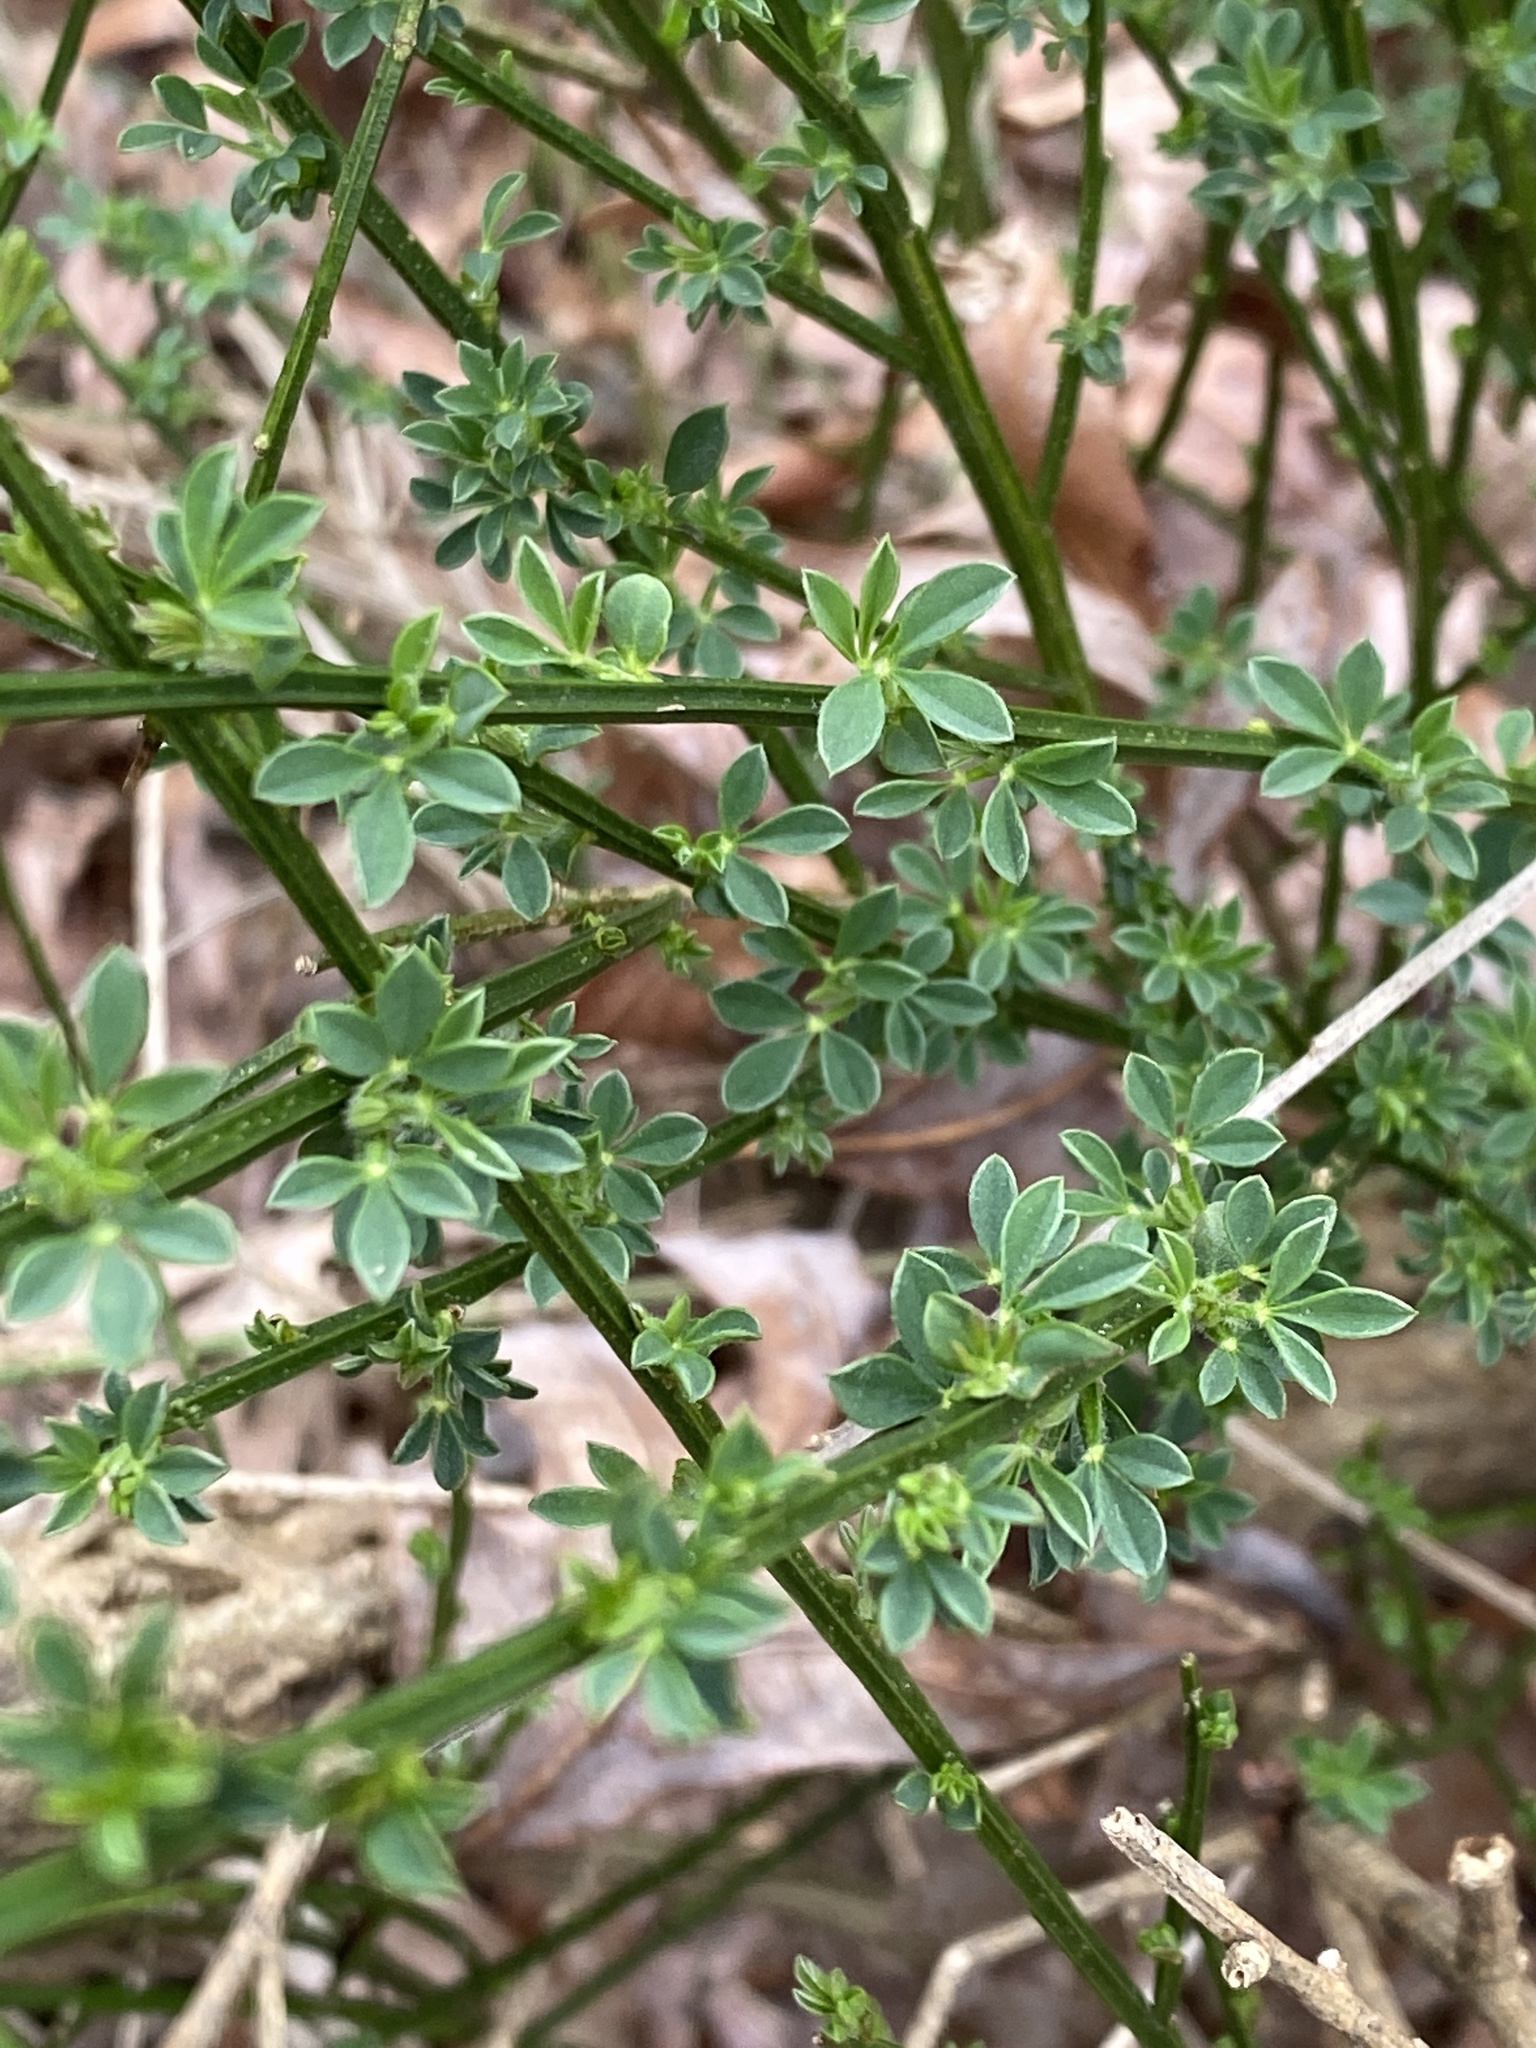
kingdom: Plantae
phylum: Tracheophyta
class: Magnoliopsida
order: Fabales
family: Fabaceae
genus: Cytisus
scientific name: Cytisus scoparius
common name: Scotch broom
